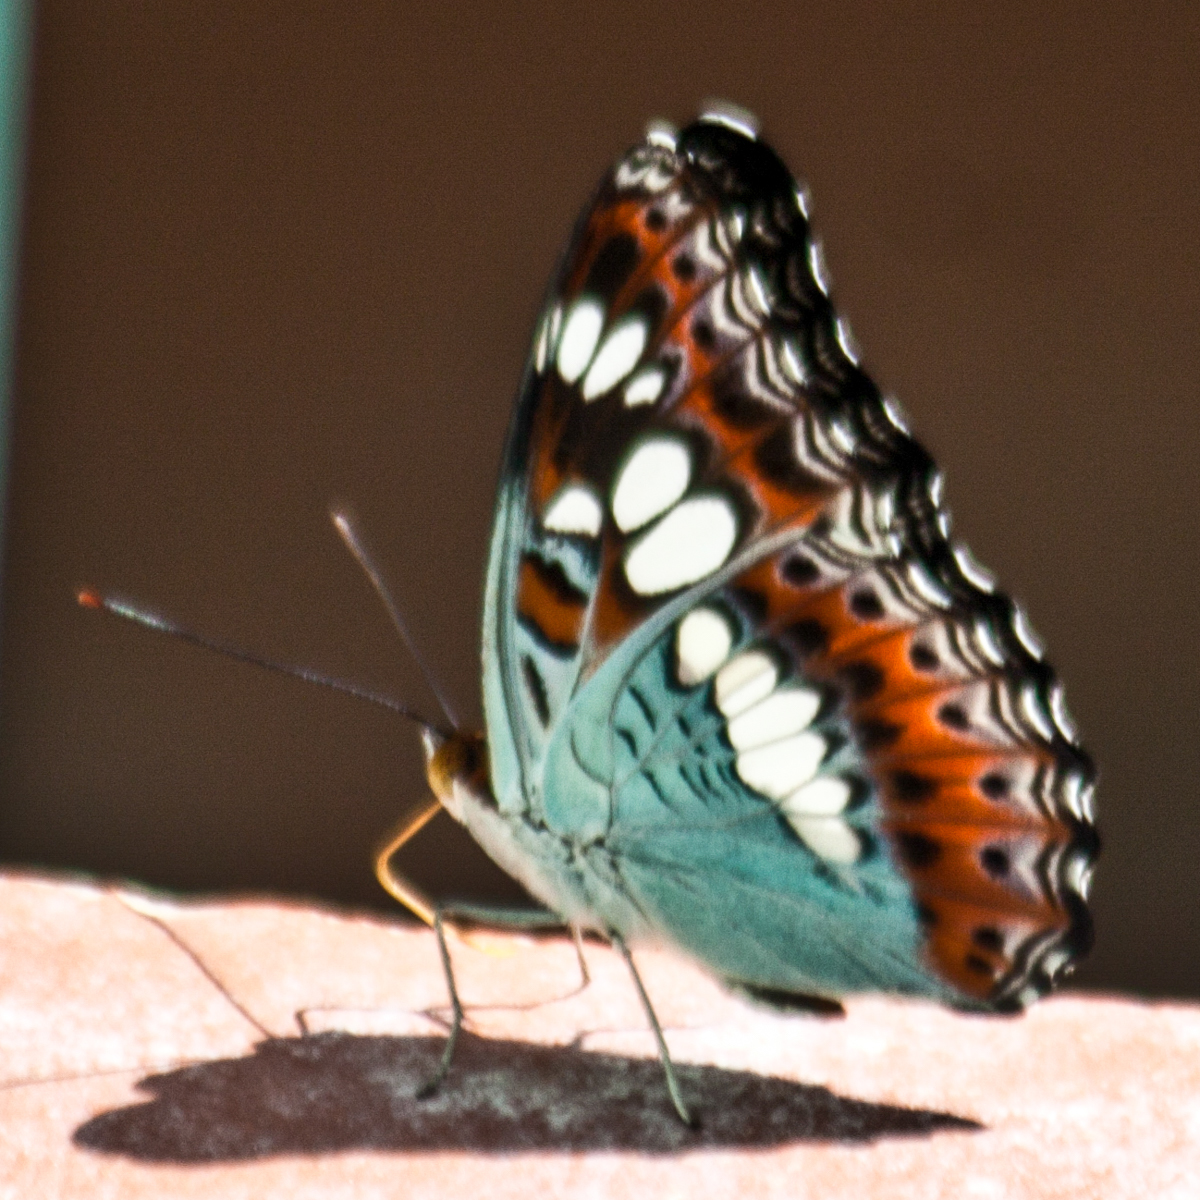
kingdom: Animalia
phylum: Arthropoda
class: Insecta
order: Lepidoptera
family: Nymphalidae
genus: Limenitis
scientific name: Limenitis Moduza procris
